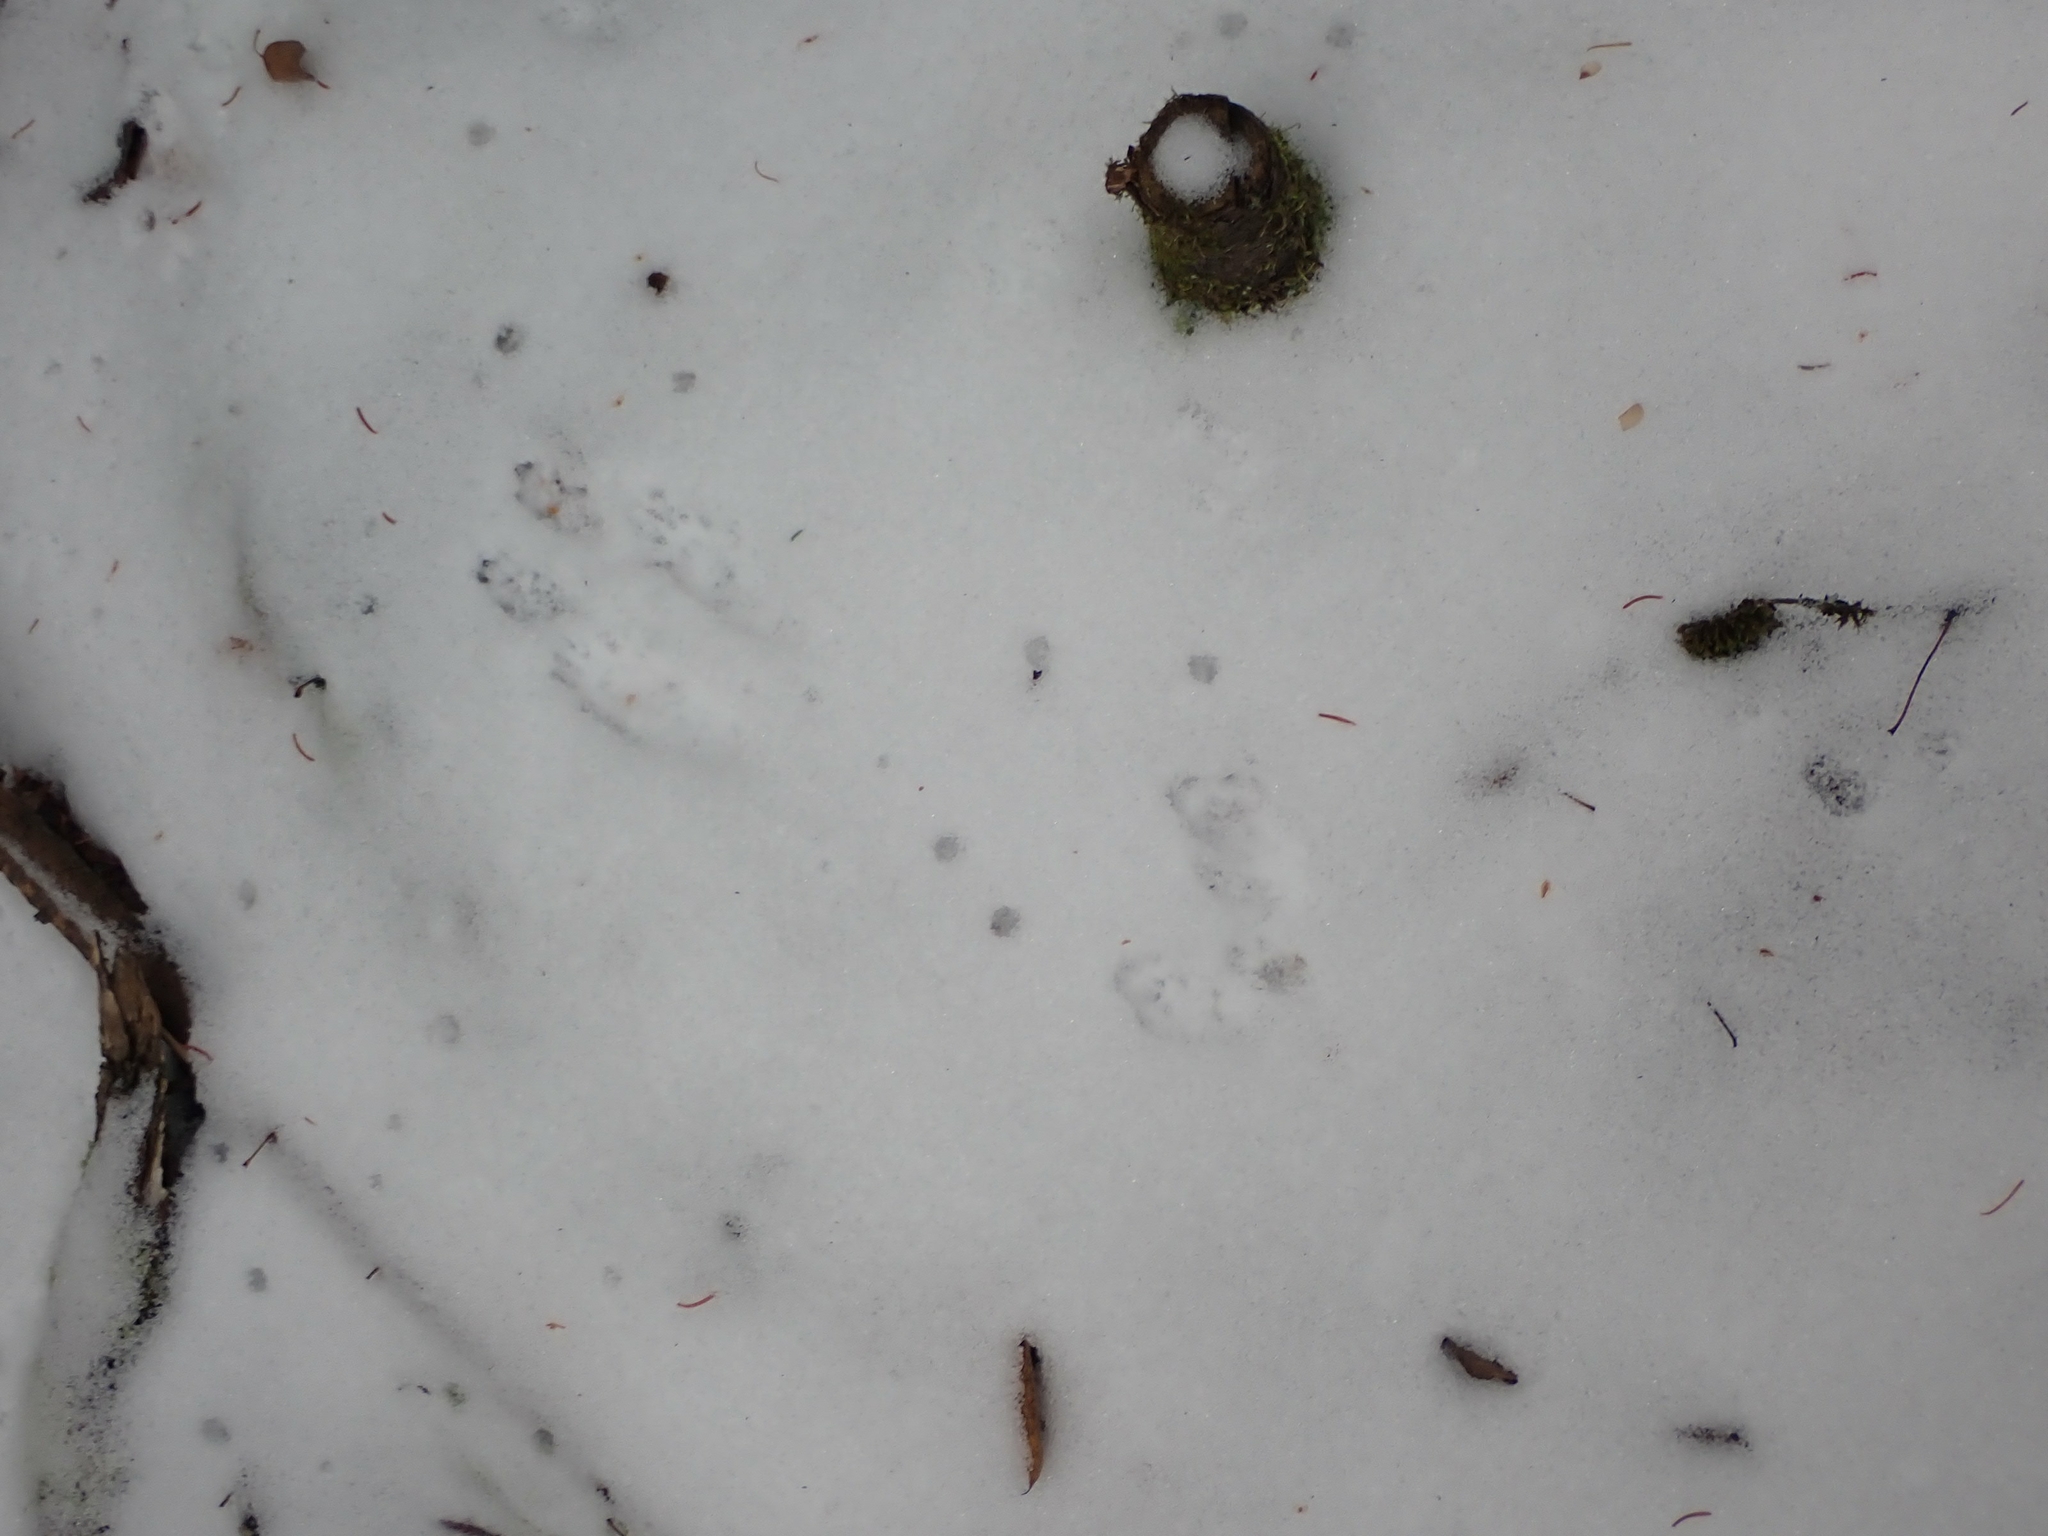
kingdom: Animalia
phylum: Chordata
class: Mammalia
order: Rodentia
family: Sciuridae
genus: Tamiasciurus
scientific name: Tamiasciurus hudsonicus
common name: Red squirrel
